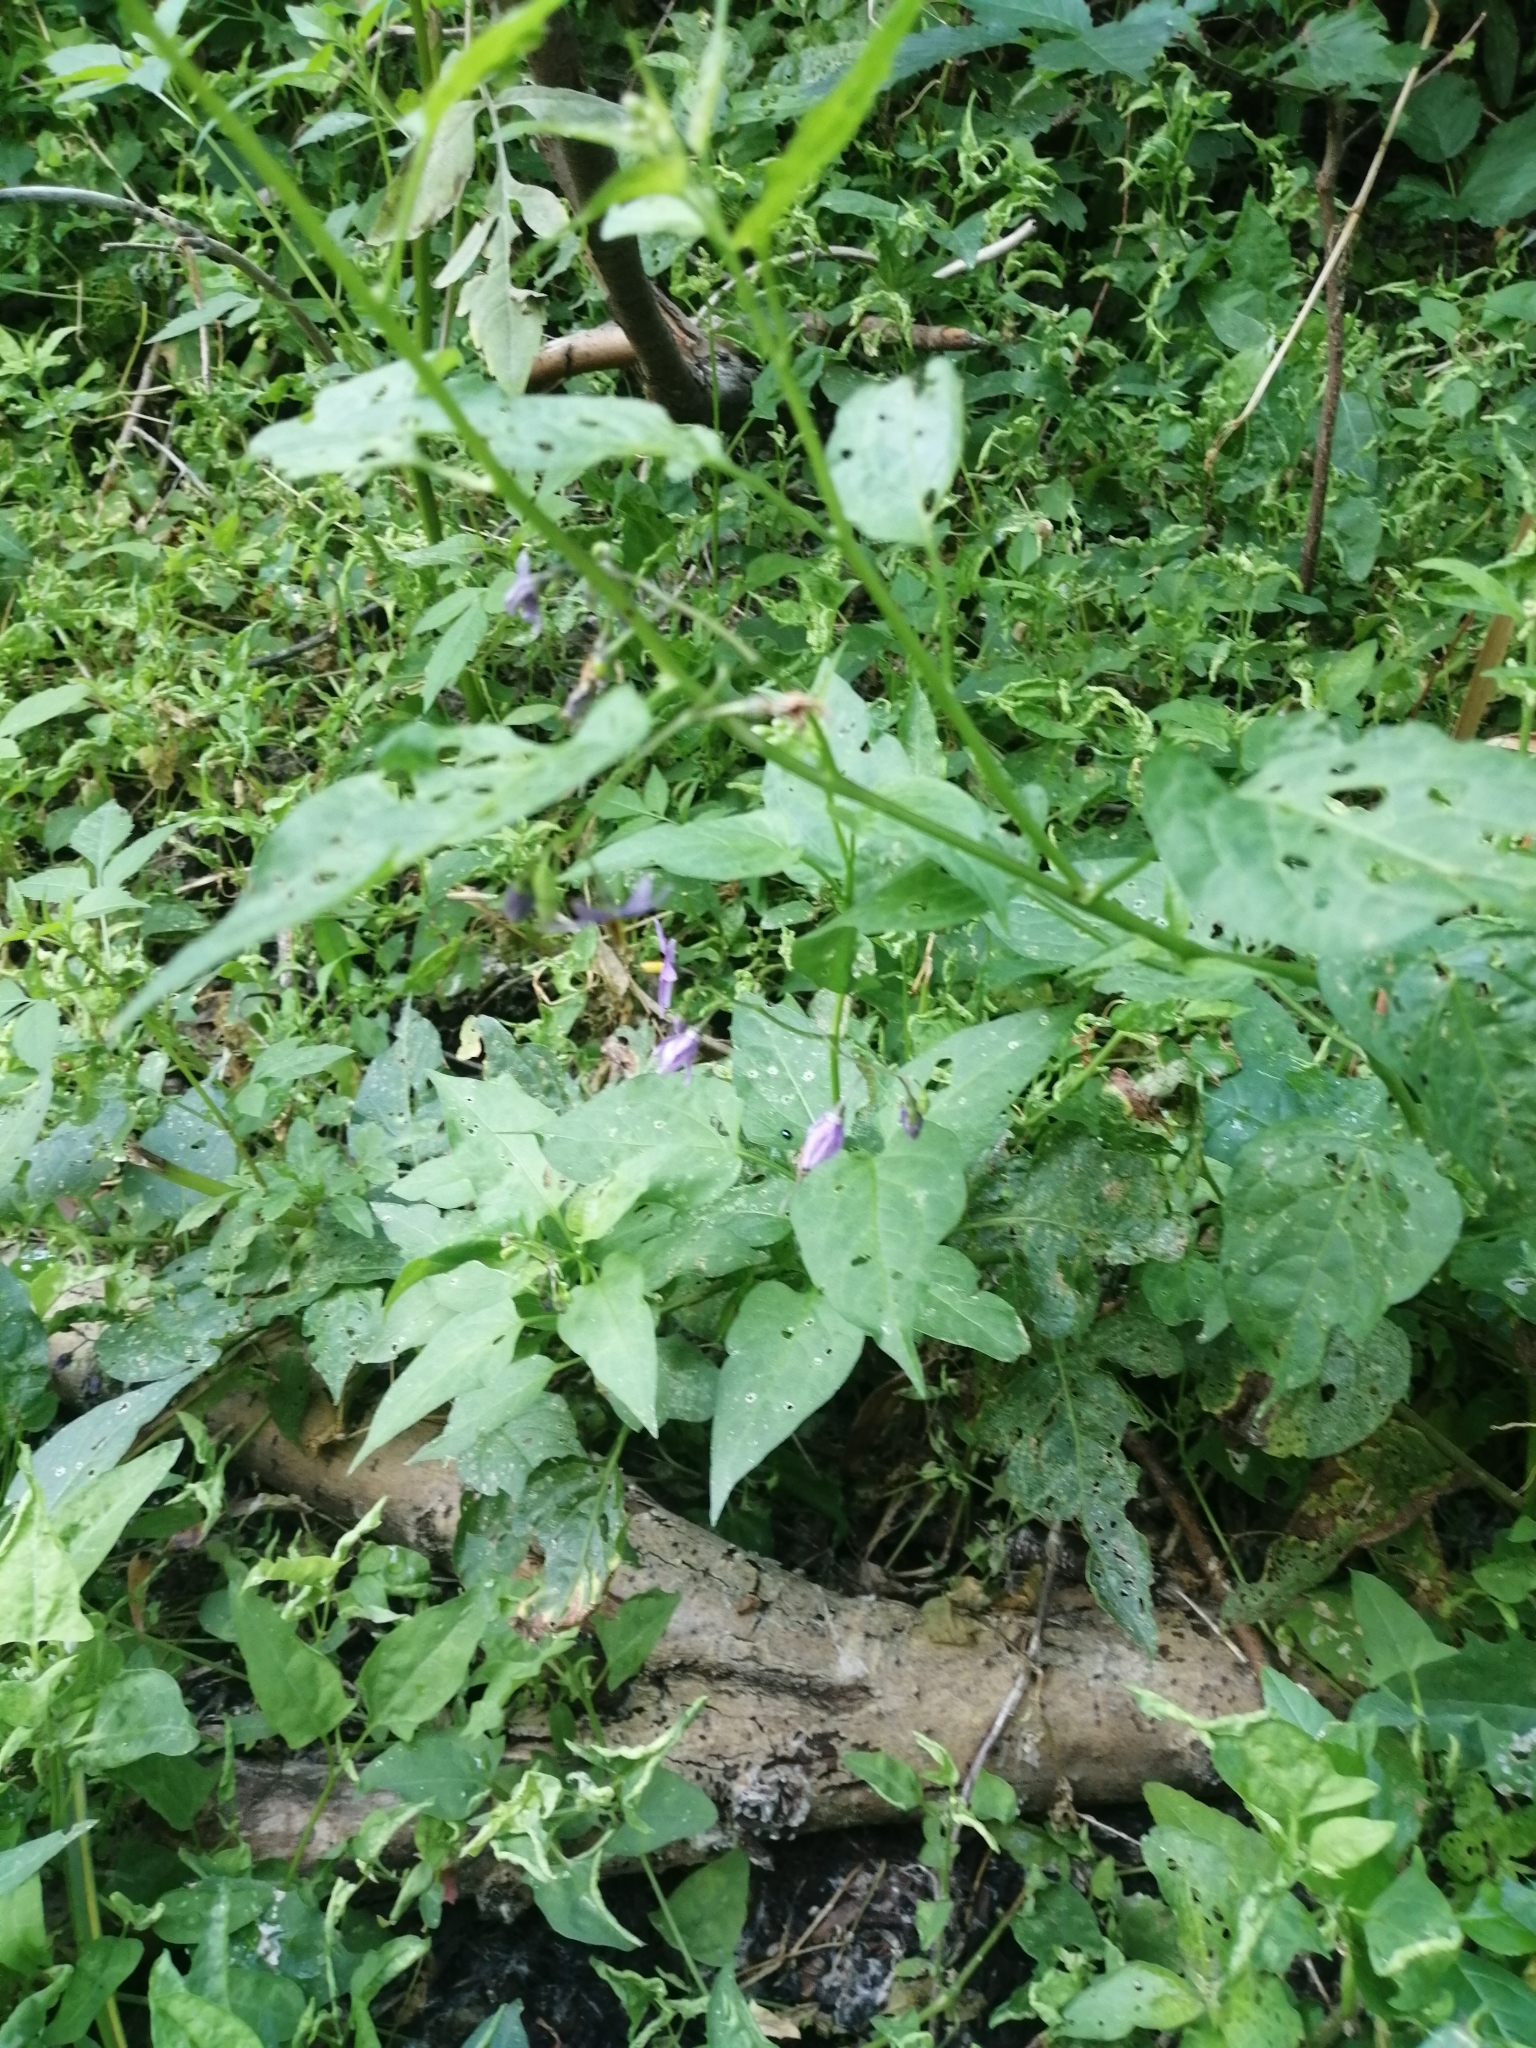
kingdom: Plantae
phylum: Tracheophyta
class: Magnoliopsida
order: Solanales
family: Solanaceae
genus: Solanum
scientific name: Solanum dulcamara
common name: Climbing nightshade
